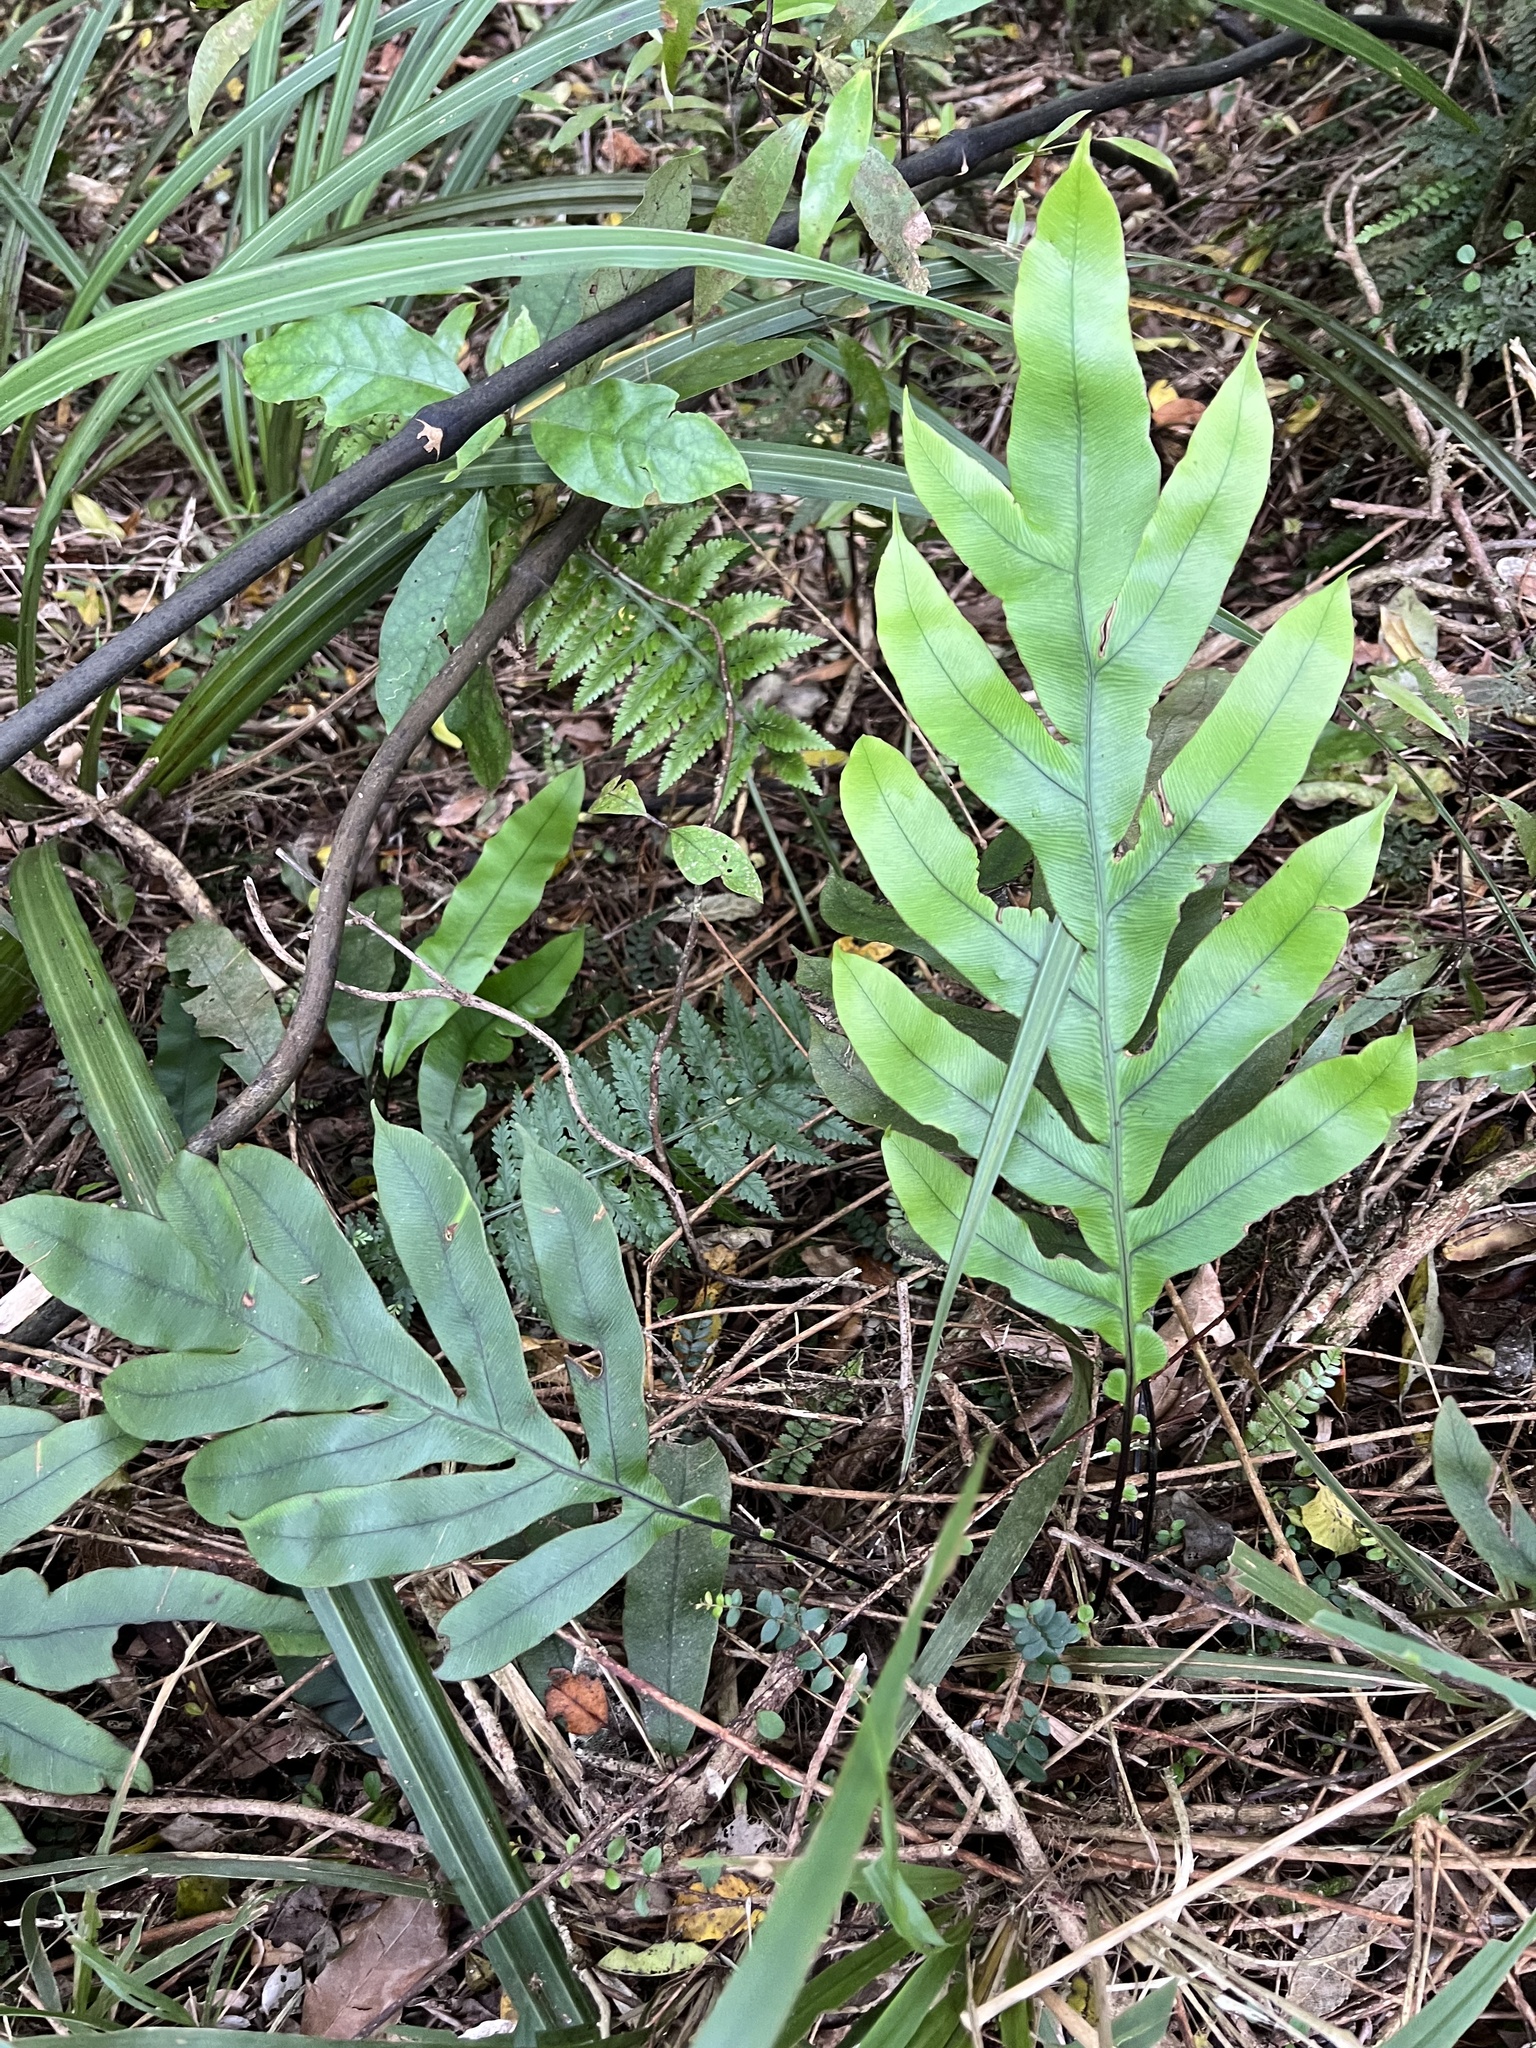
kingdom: Plantae
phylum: Tracheophyta
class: Polypodiopsida
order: Polypodiales
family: Blechnaceae
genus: Austroblechnum
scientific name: Austroblechnum colensoi
